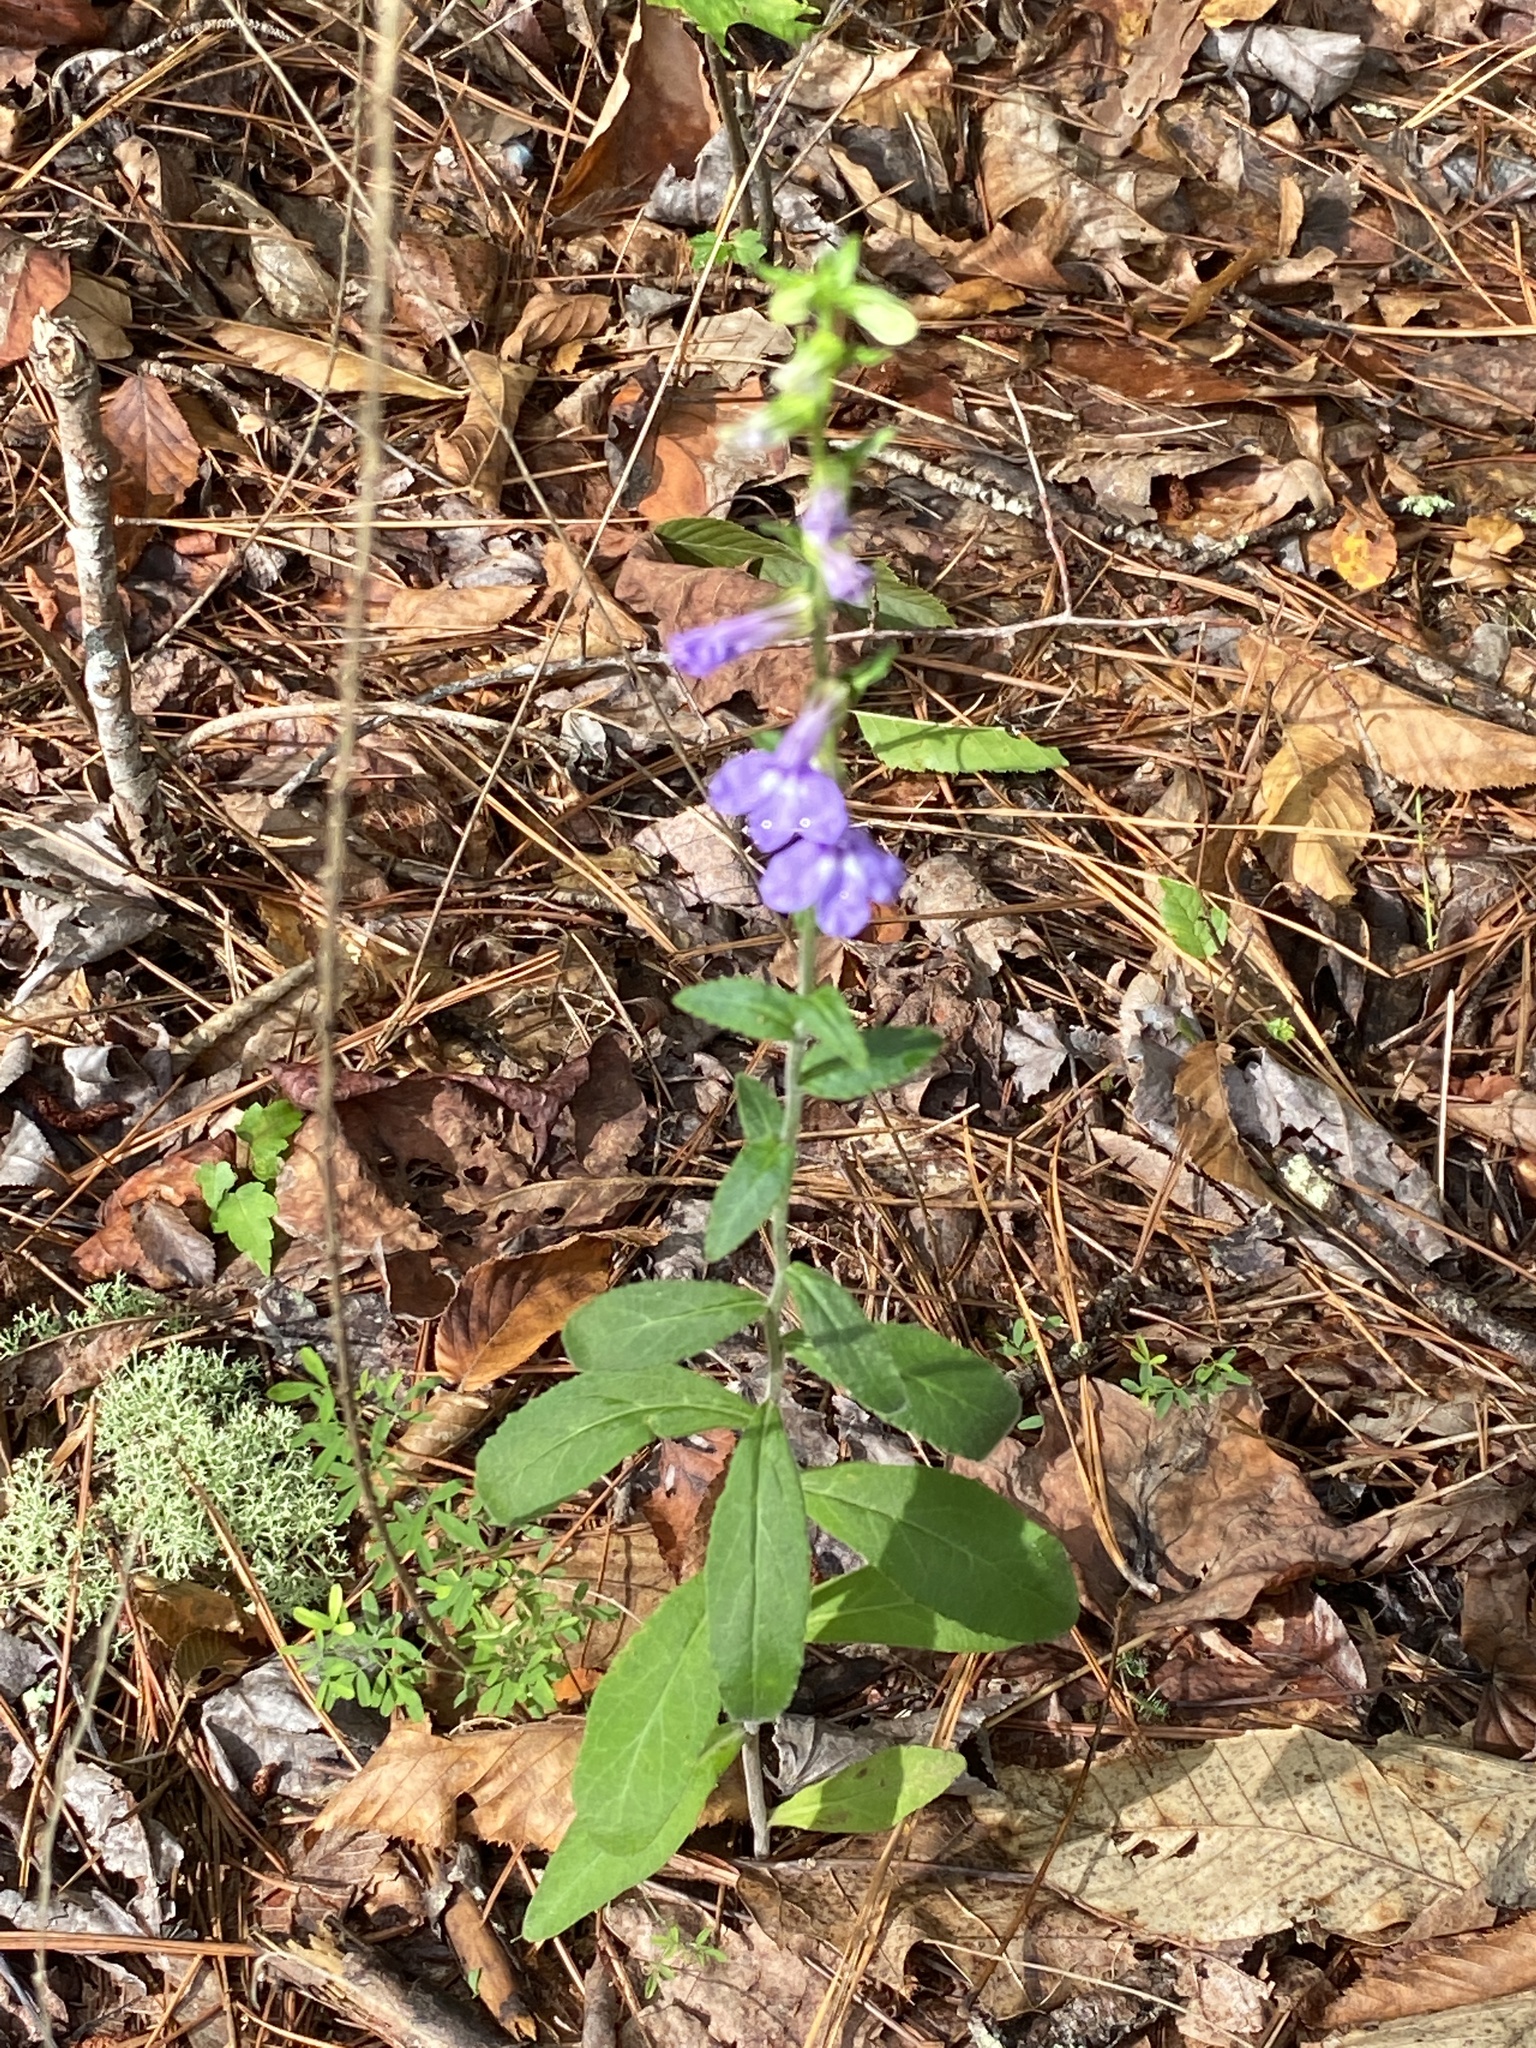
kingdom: Plantae
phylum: Tracheophyta
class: Magnoliopsida
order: Asterales
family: Campanulaceae
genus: Lobelia
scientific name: Lobelia puberula
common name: Purple dewdrop
